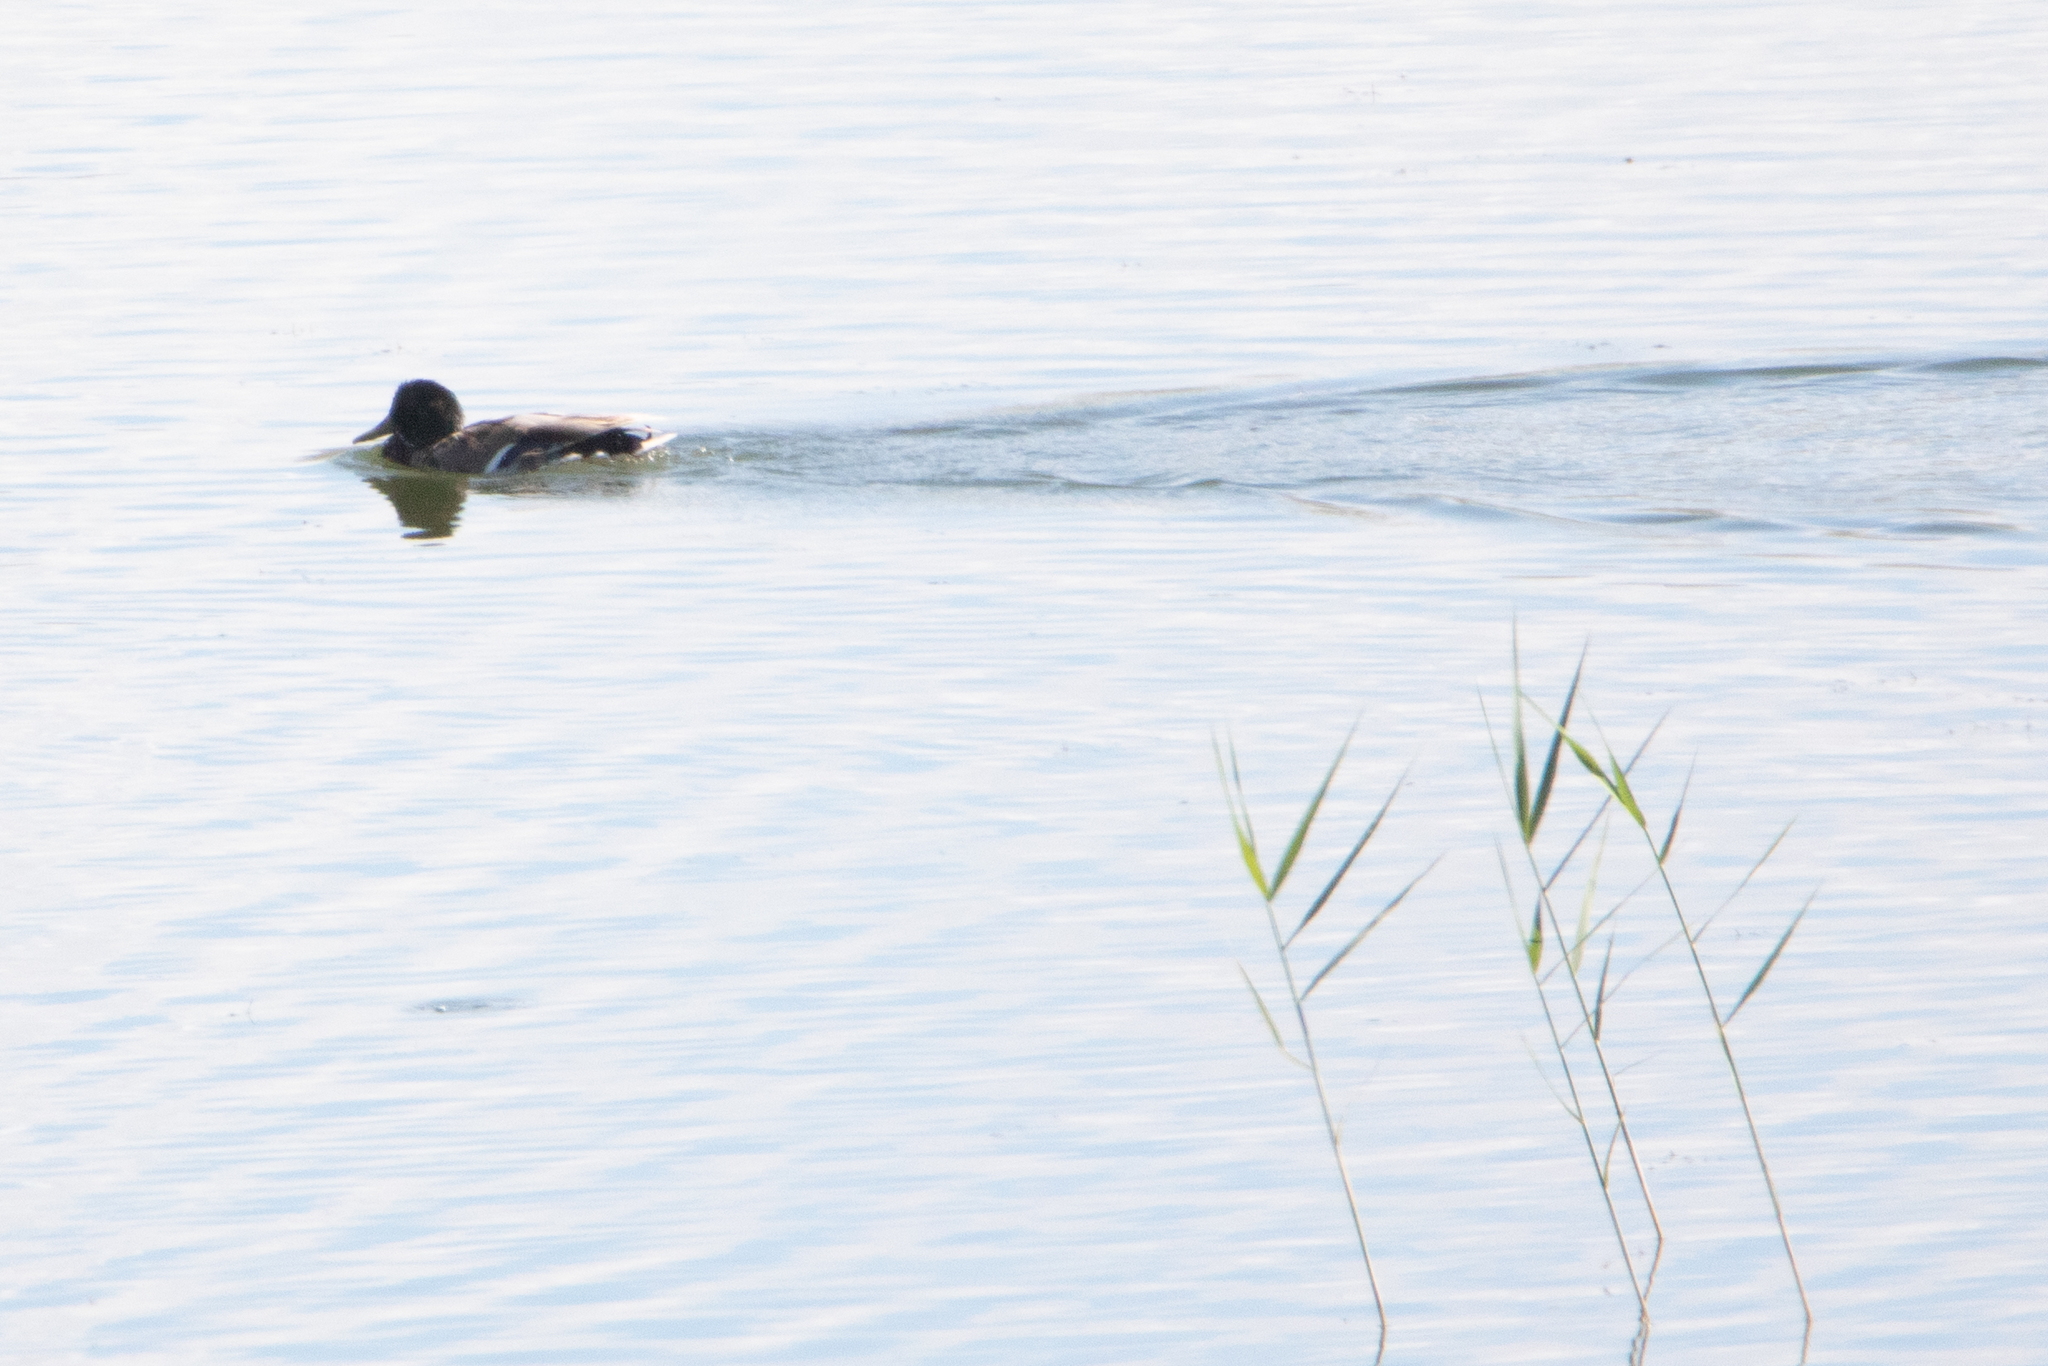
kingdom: Animalia
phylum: Chordata
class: Aves
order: Anseriformes
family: Anatidae
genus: Anas
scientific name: Anas platyrhynchos
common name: Mallard
